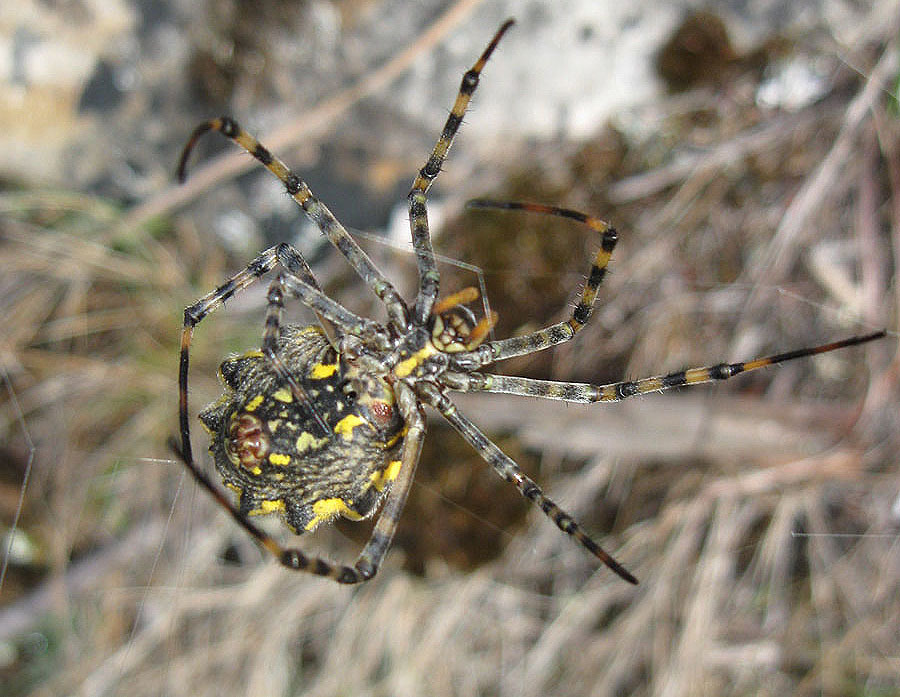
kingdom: Animalia
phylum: Arthropoda
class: Arachnida
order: Araneae
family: Araneidae
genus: Argiope
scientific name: Argiope australis
